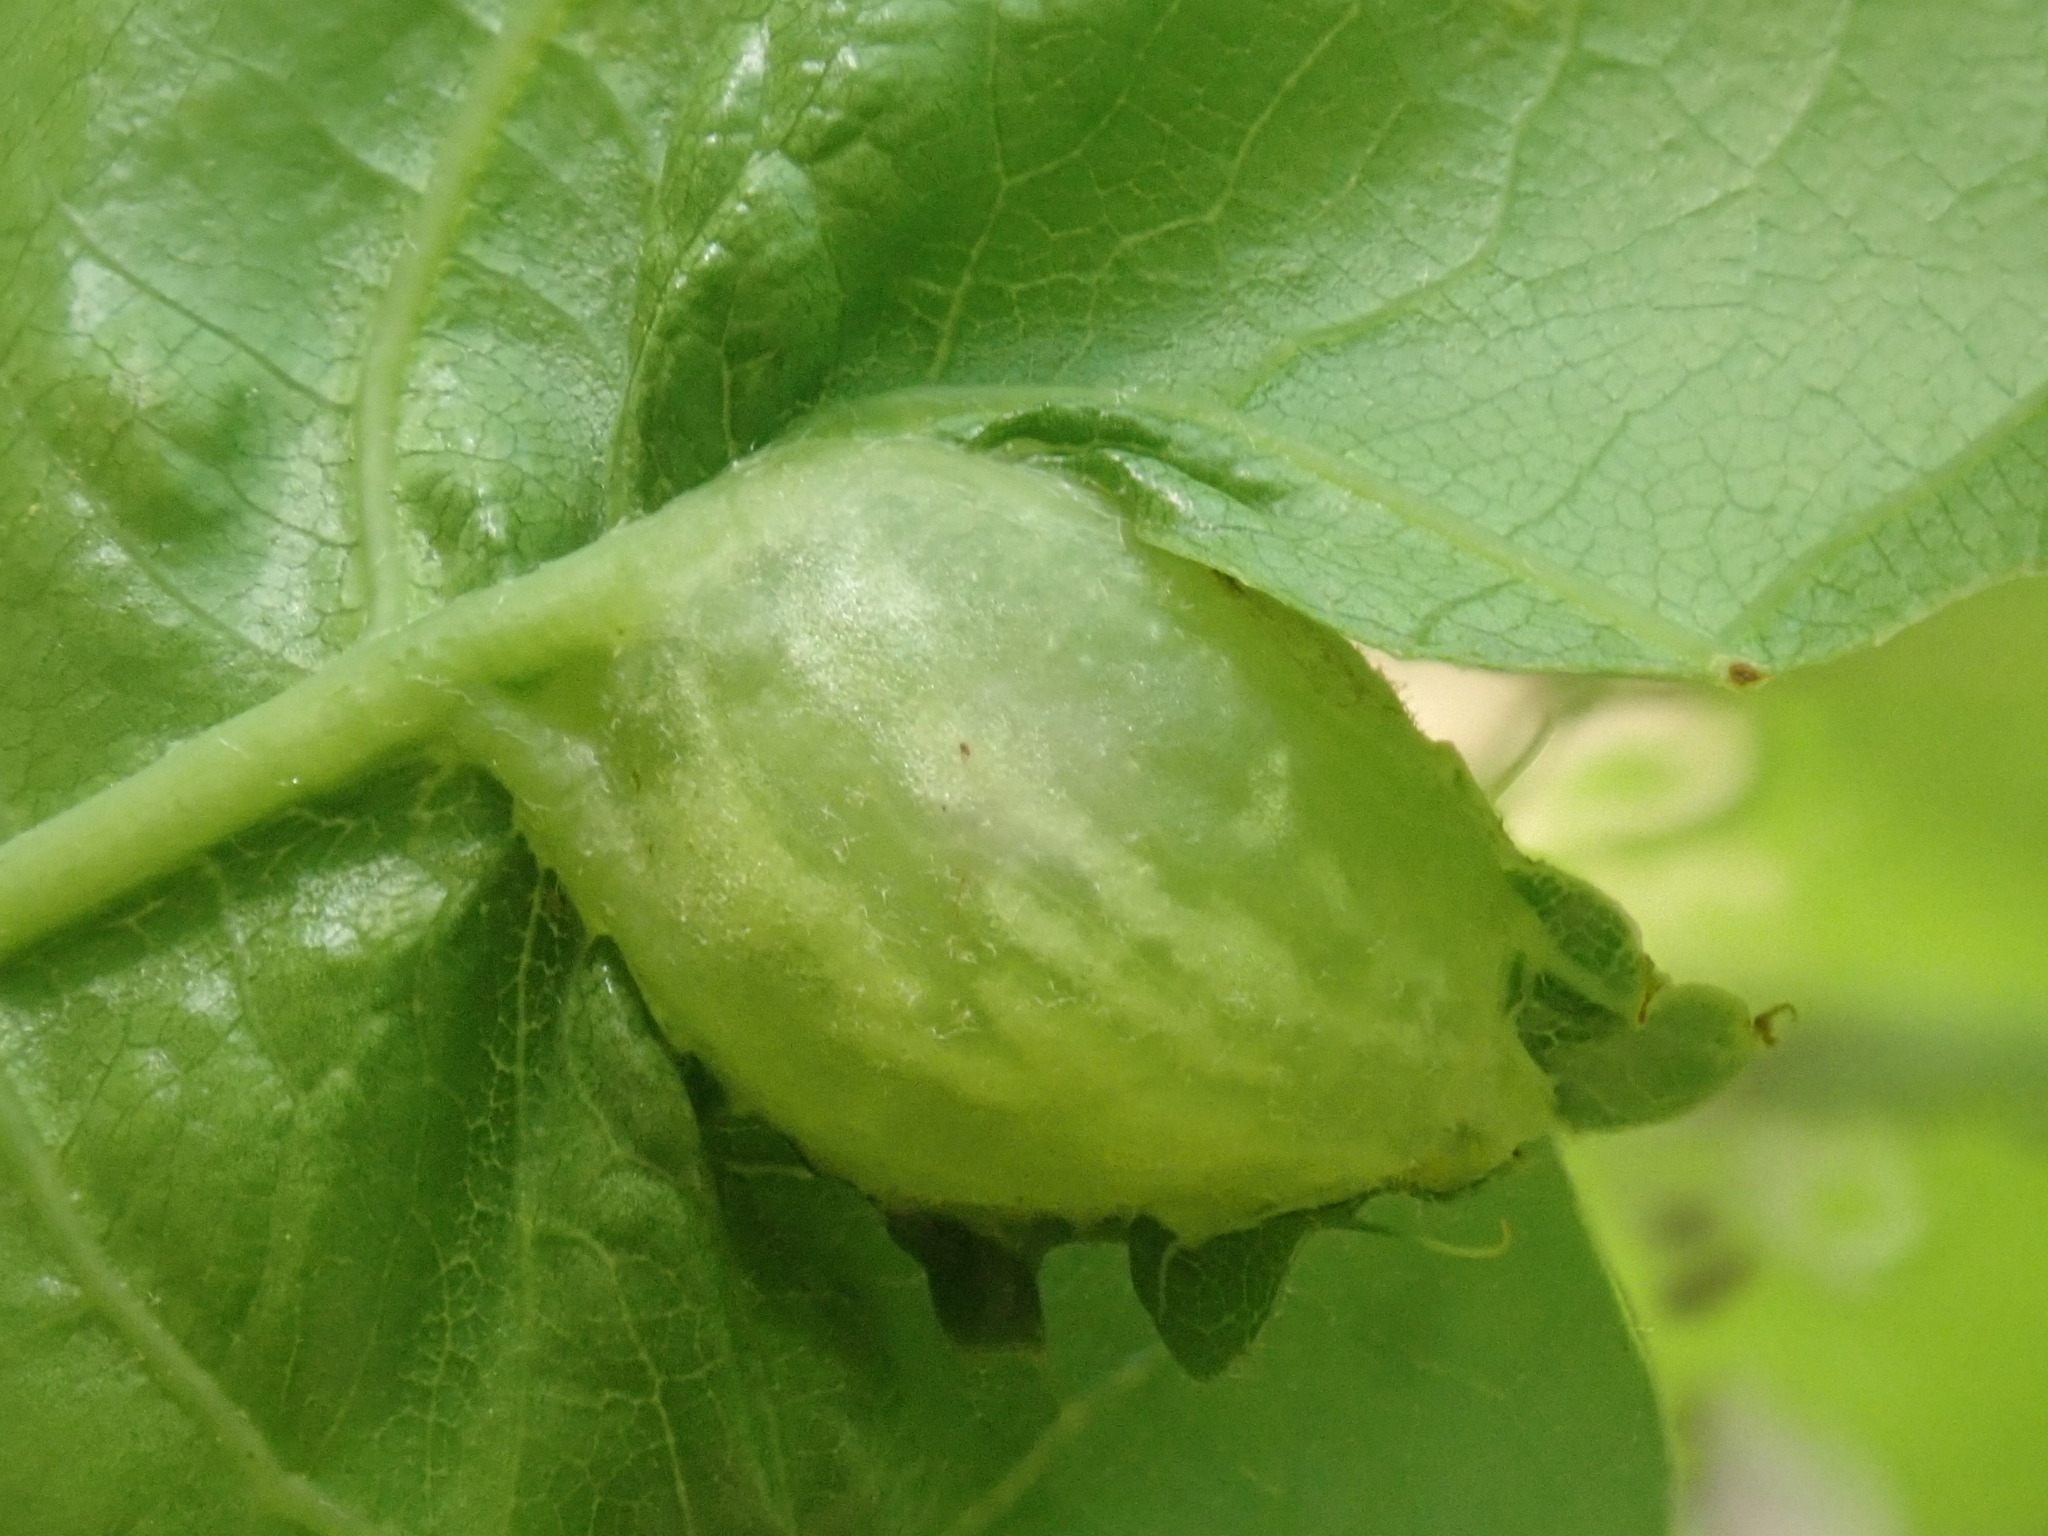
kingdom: Animalia
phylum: Arthropoda
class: Insecta
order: Hymenoptera
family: Cynipidae
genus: Dryocosmus
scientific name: Dryocosmus
